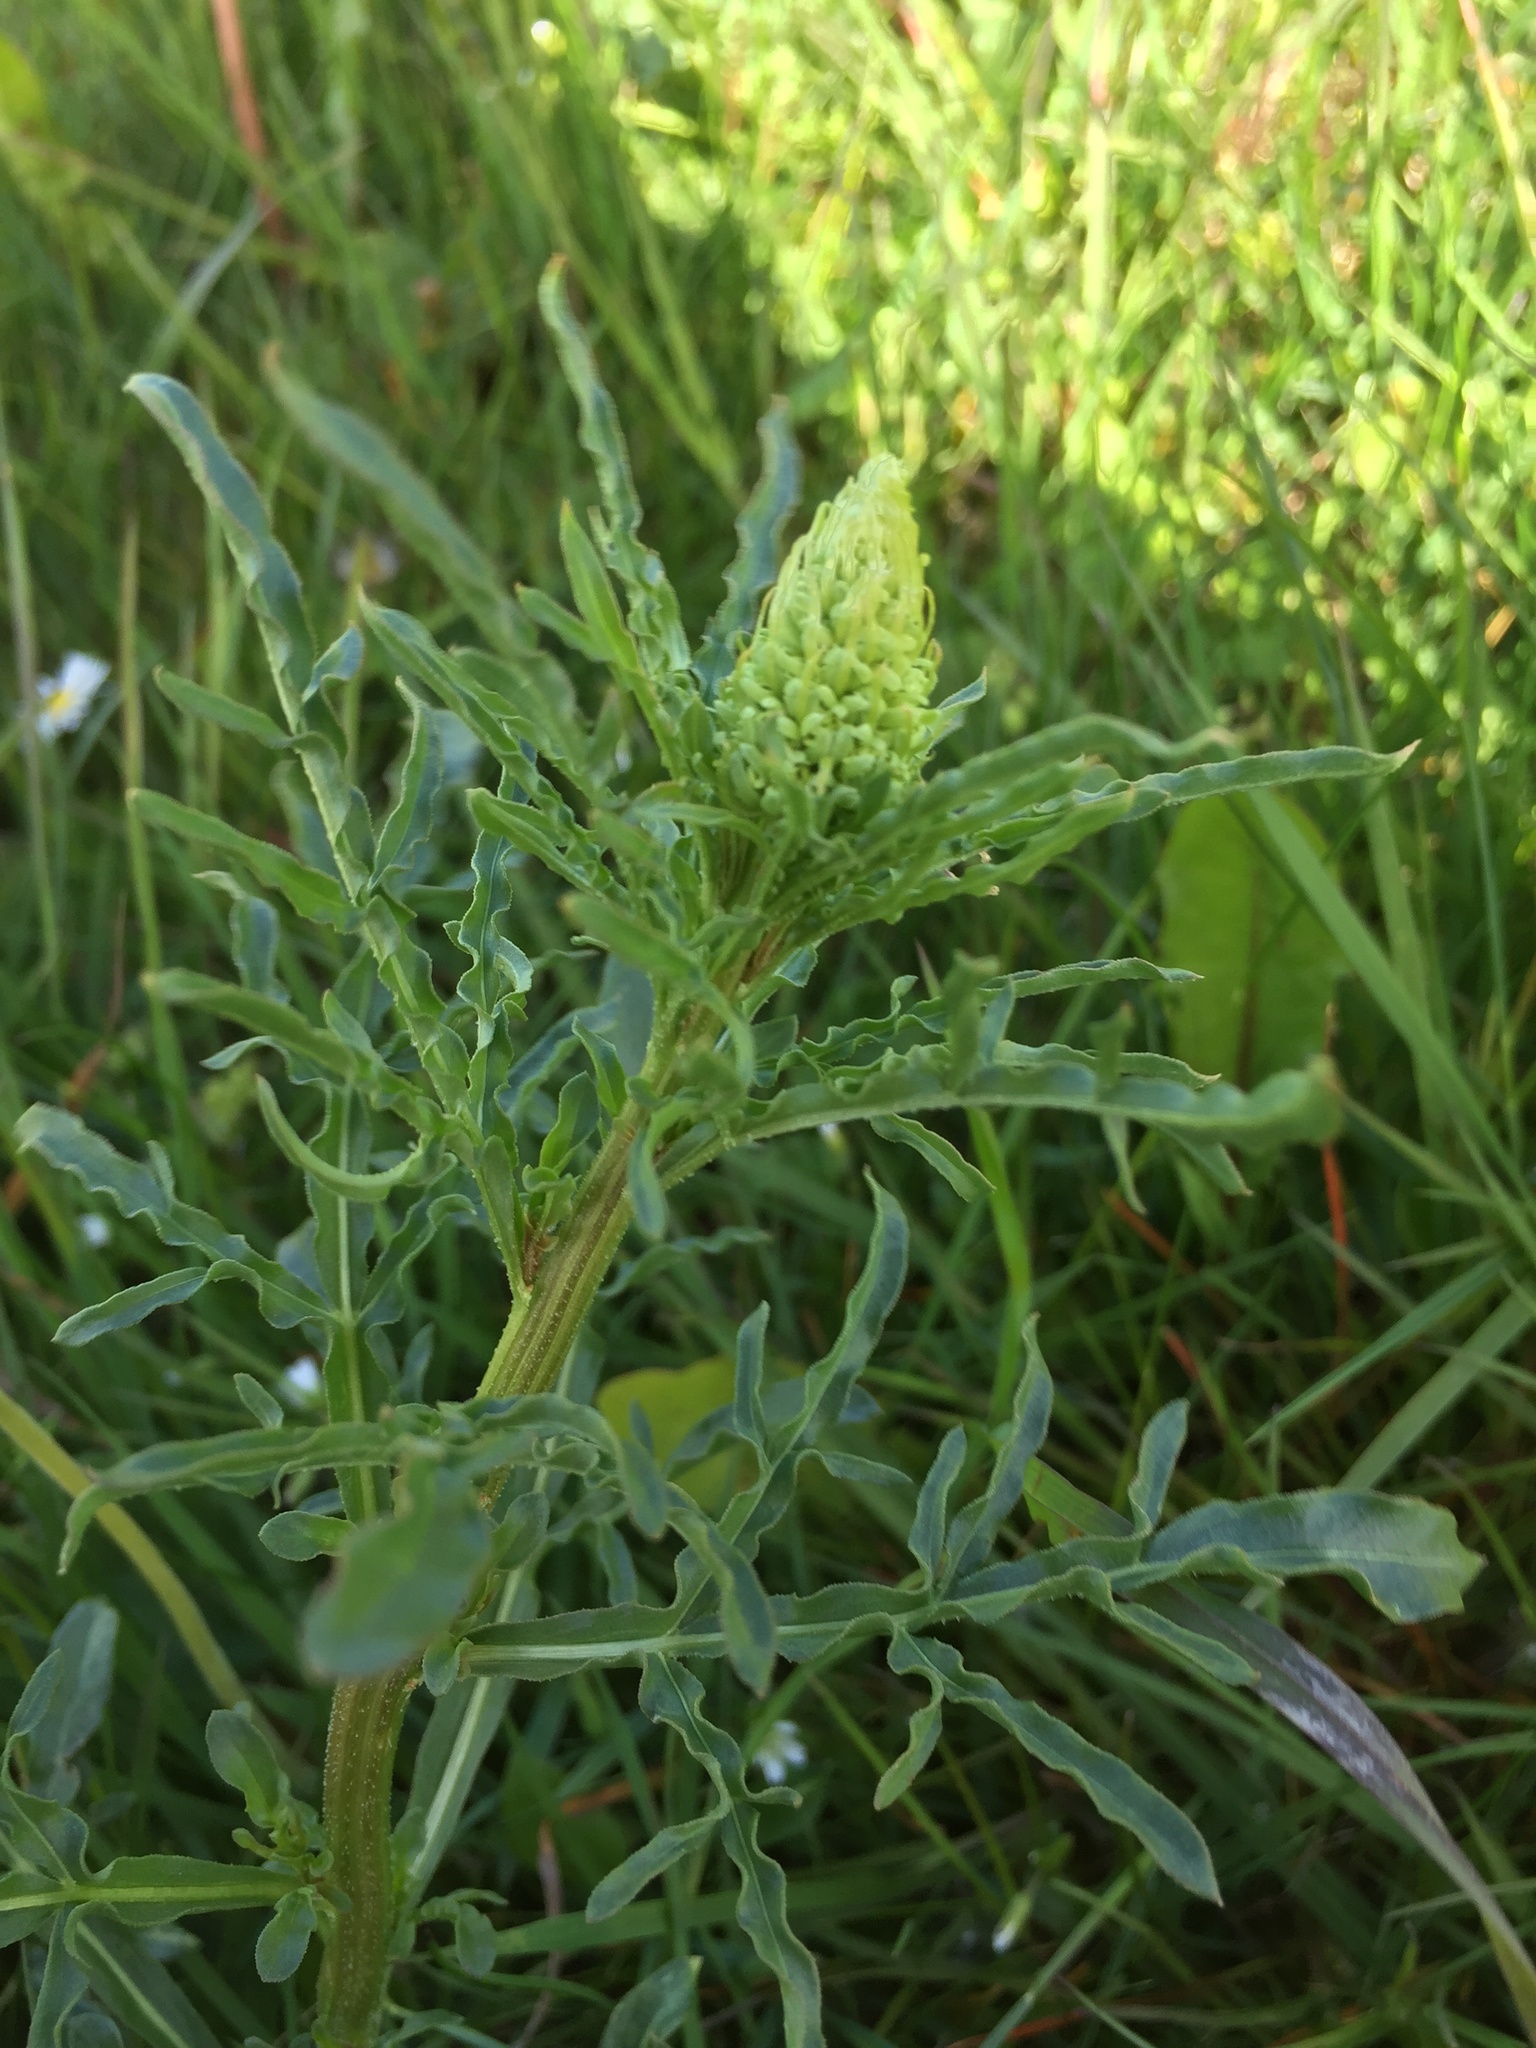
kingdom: Plantae
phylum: Tracheophyta
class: Magnoliopsida
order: Brassicales
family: Resedaceae
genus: Reseda
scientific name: Reseda lutea
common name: Wild mignonette
